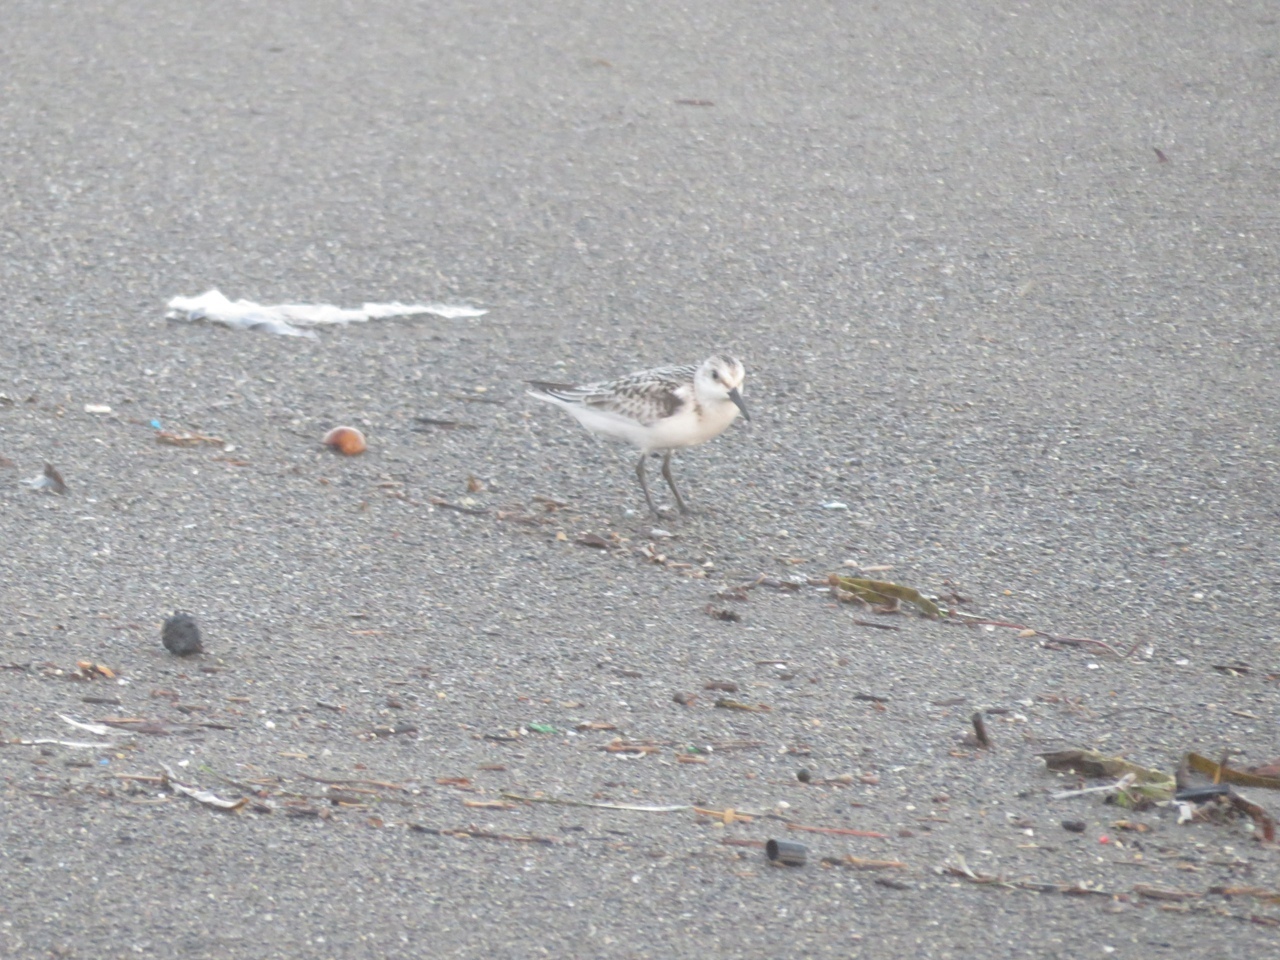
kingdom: Animalia
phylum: Chordata
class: Aves
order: Charadriiformes
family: Scolopacidae
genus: Calidris
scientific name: Calidris alba
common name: Sanderling
